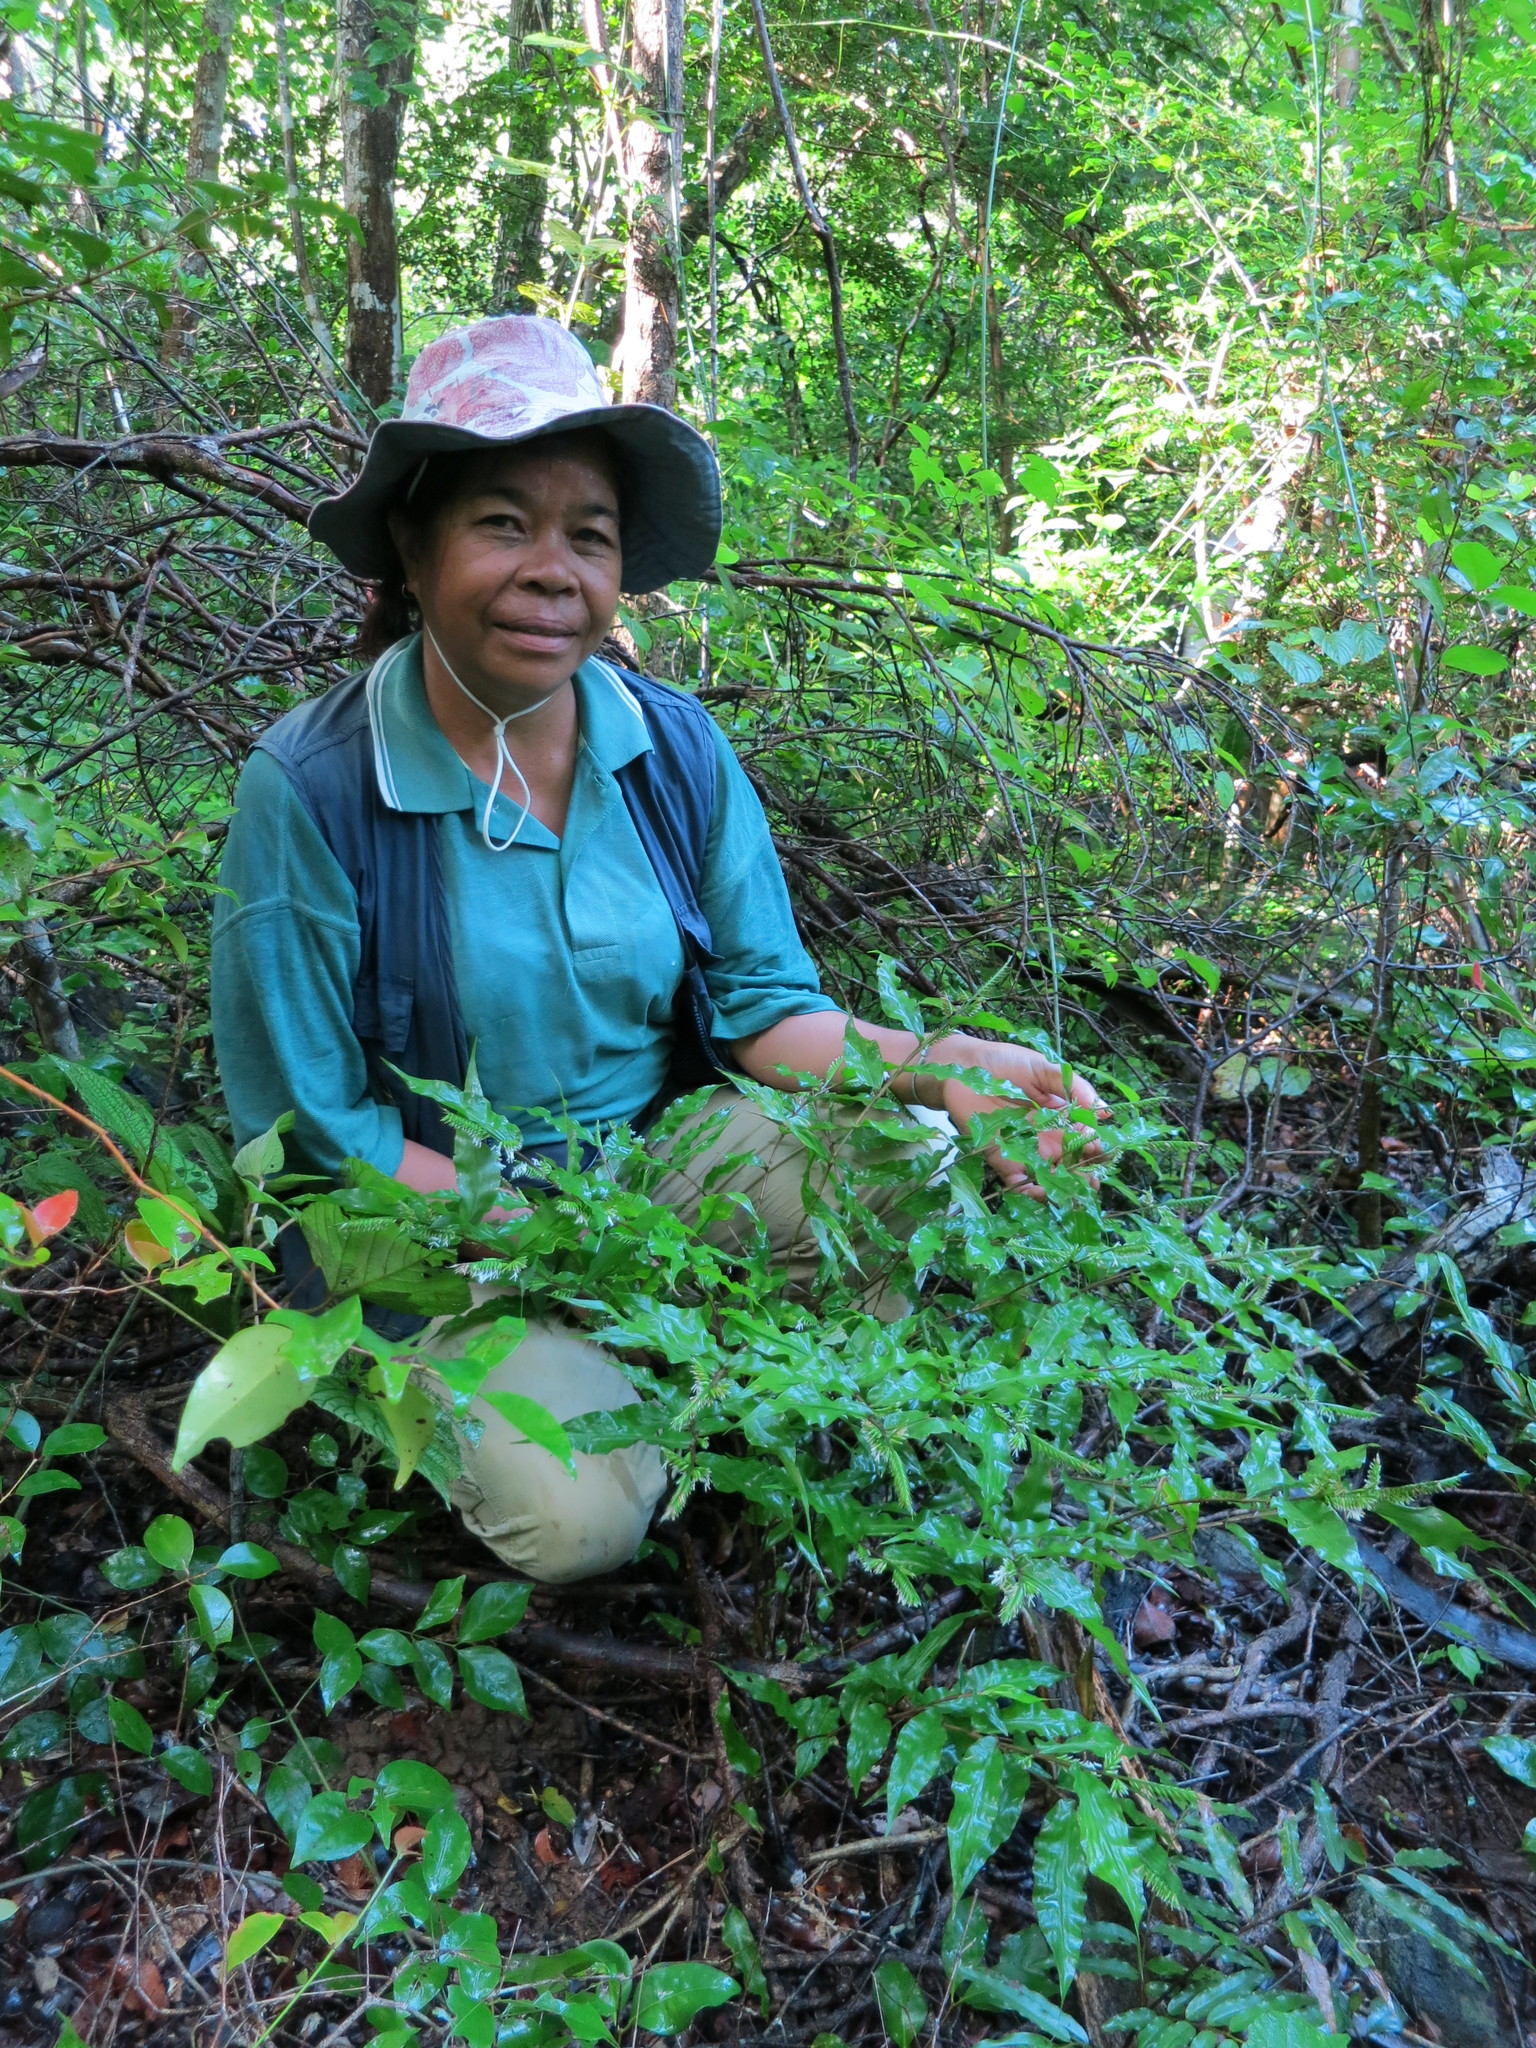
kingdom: Plantae
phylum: Tracheophyta
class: Liliopsida
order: Poales
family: Poaceae
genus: Chasechloa
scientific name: Chasechloa madagascariensis
